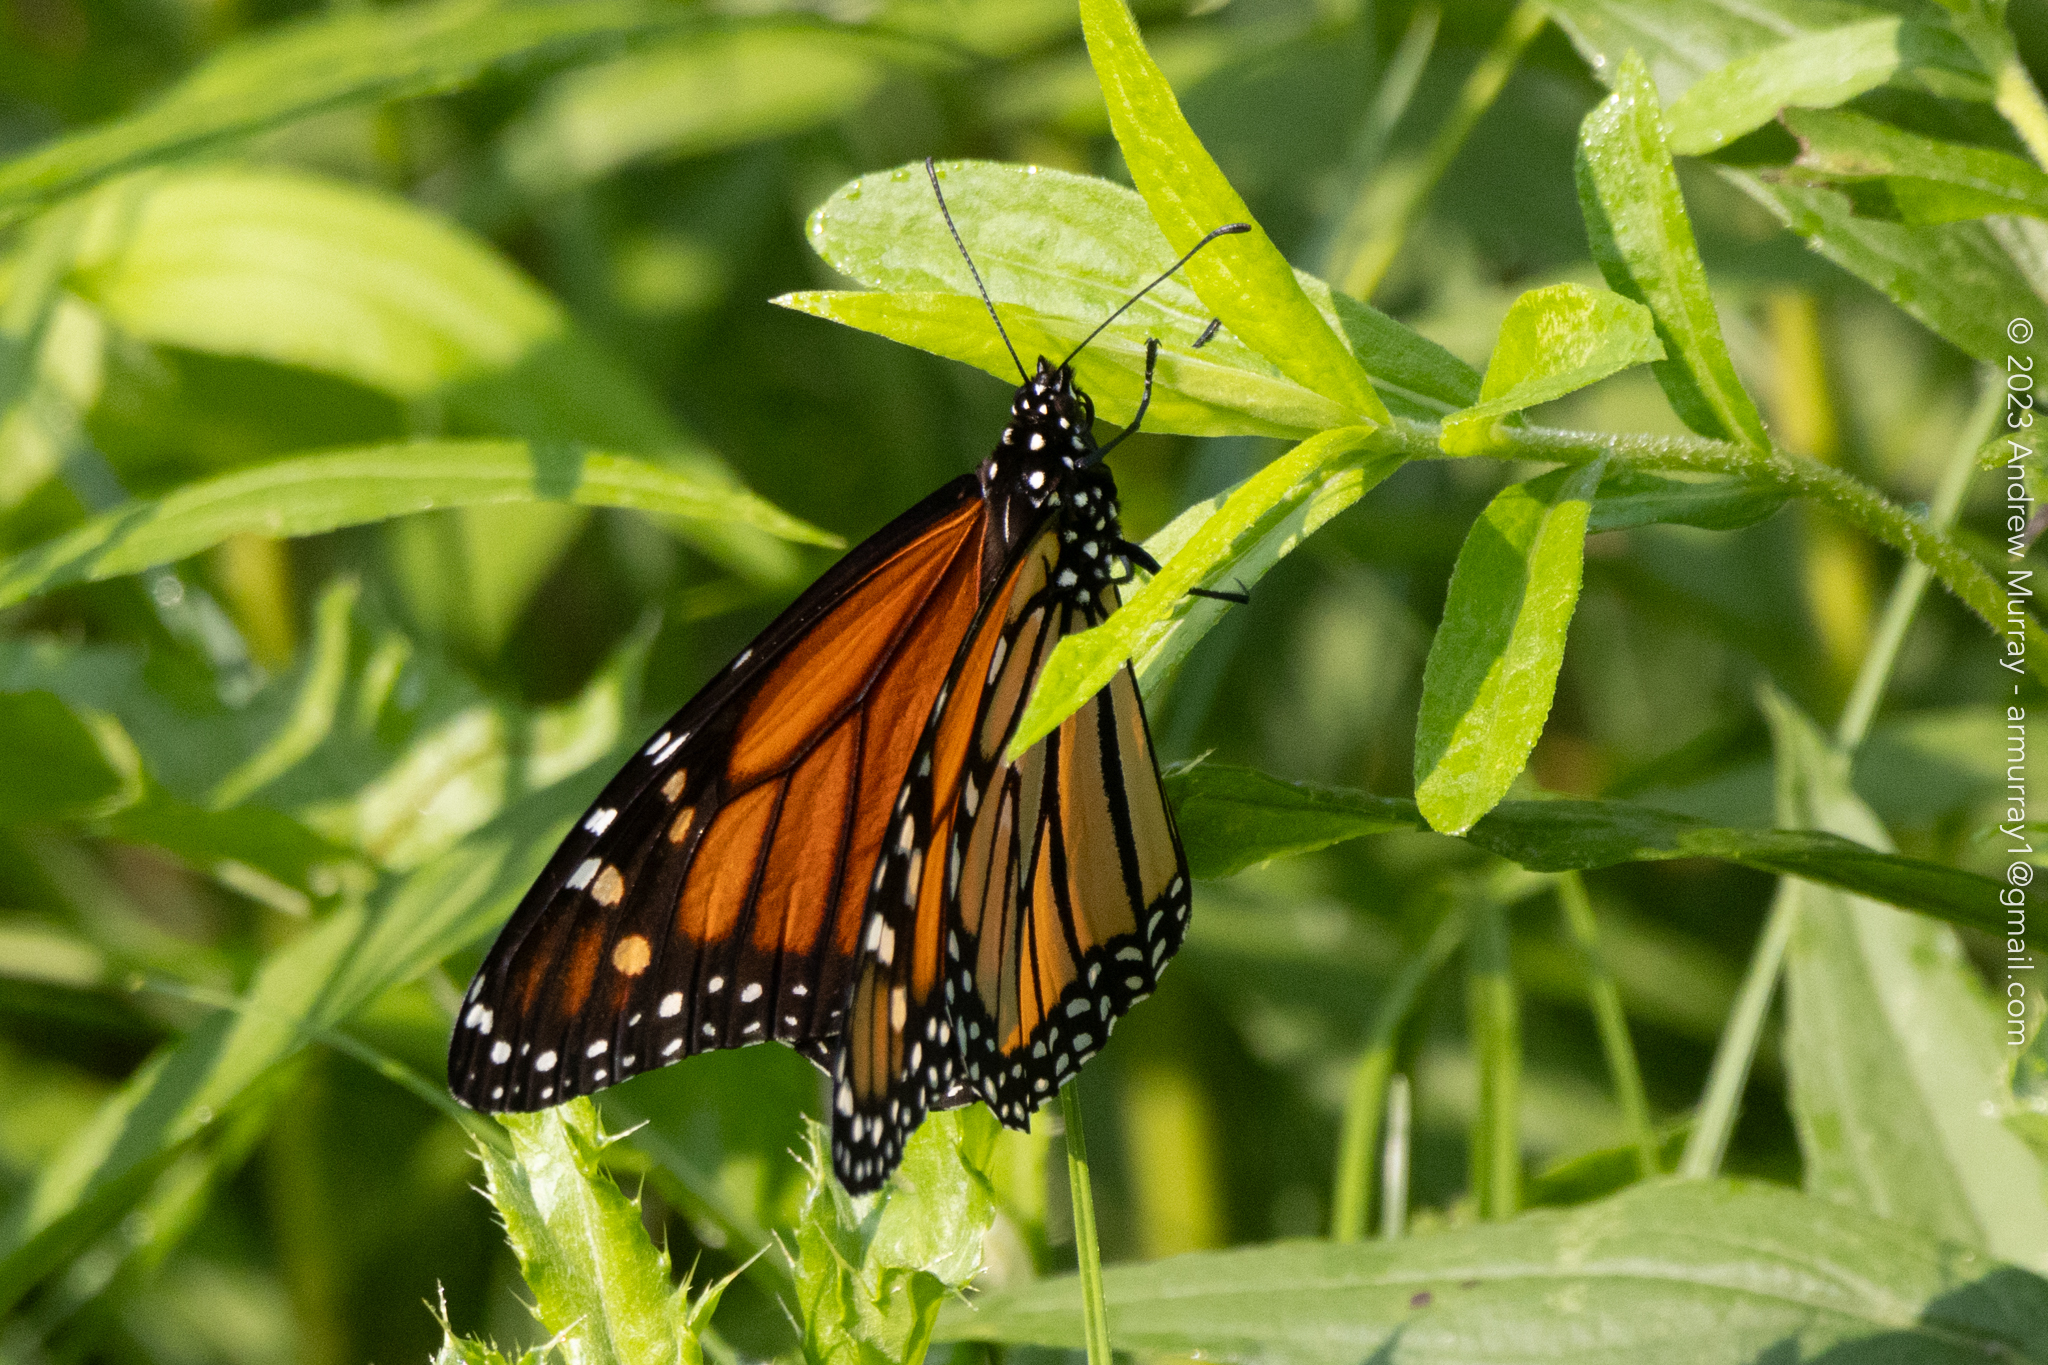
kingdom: Animalia
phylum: Arthropoda
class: Insecta
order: Lepidoptera
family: Nymphalidae
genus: Danaus
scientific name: Danaus plexippus
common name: Monarch
